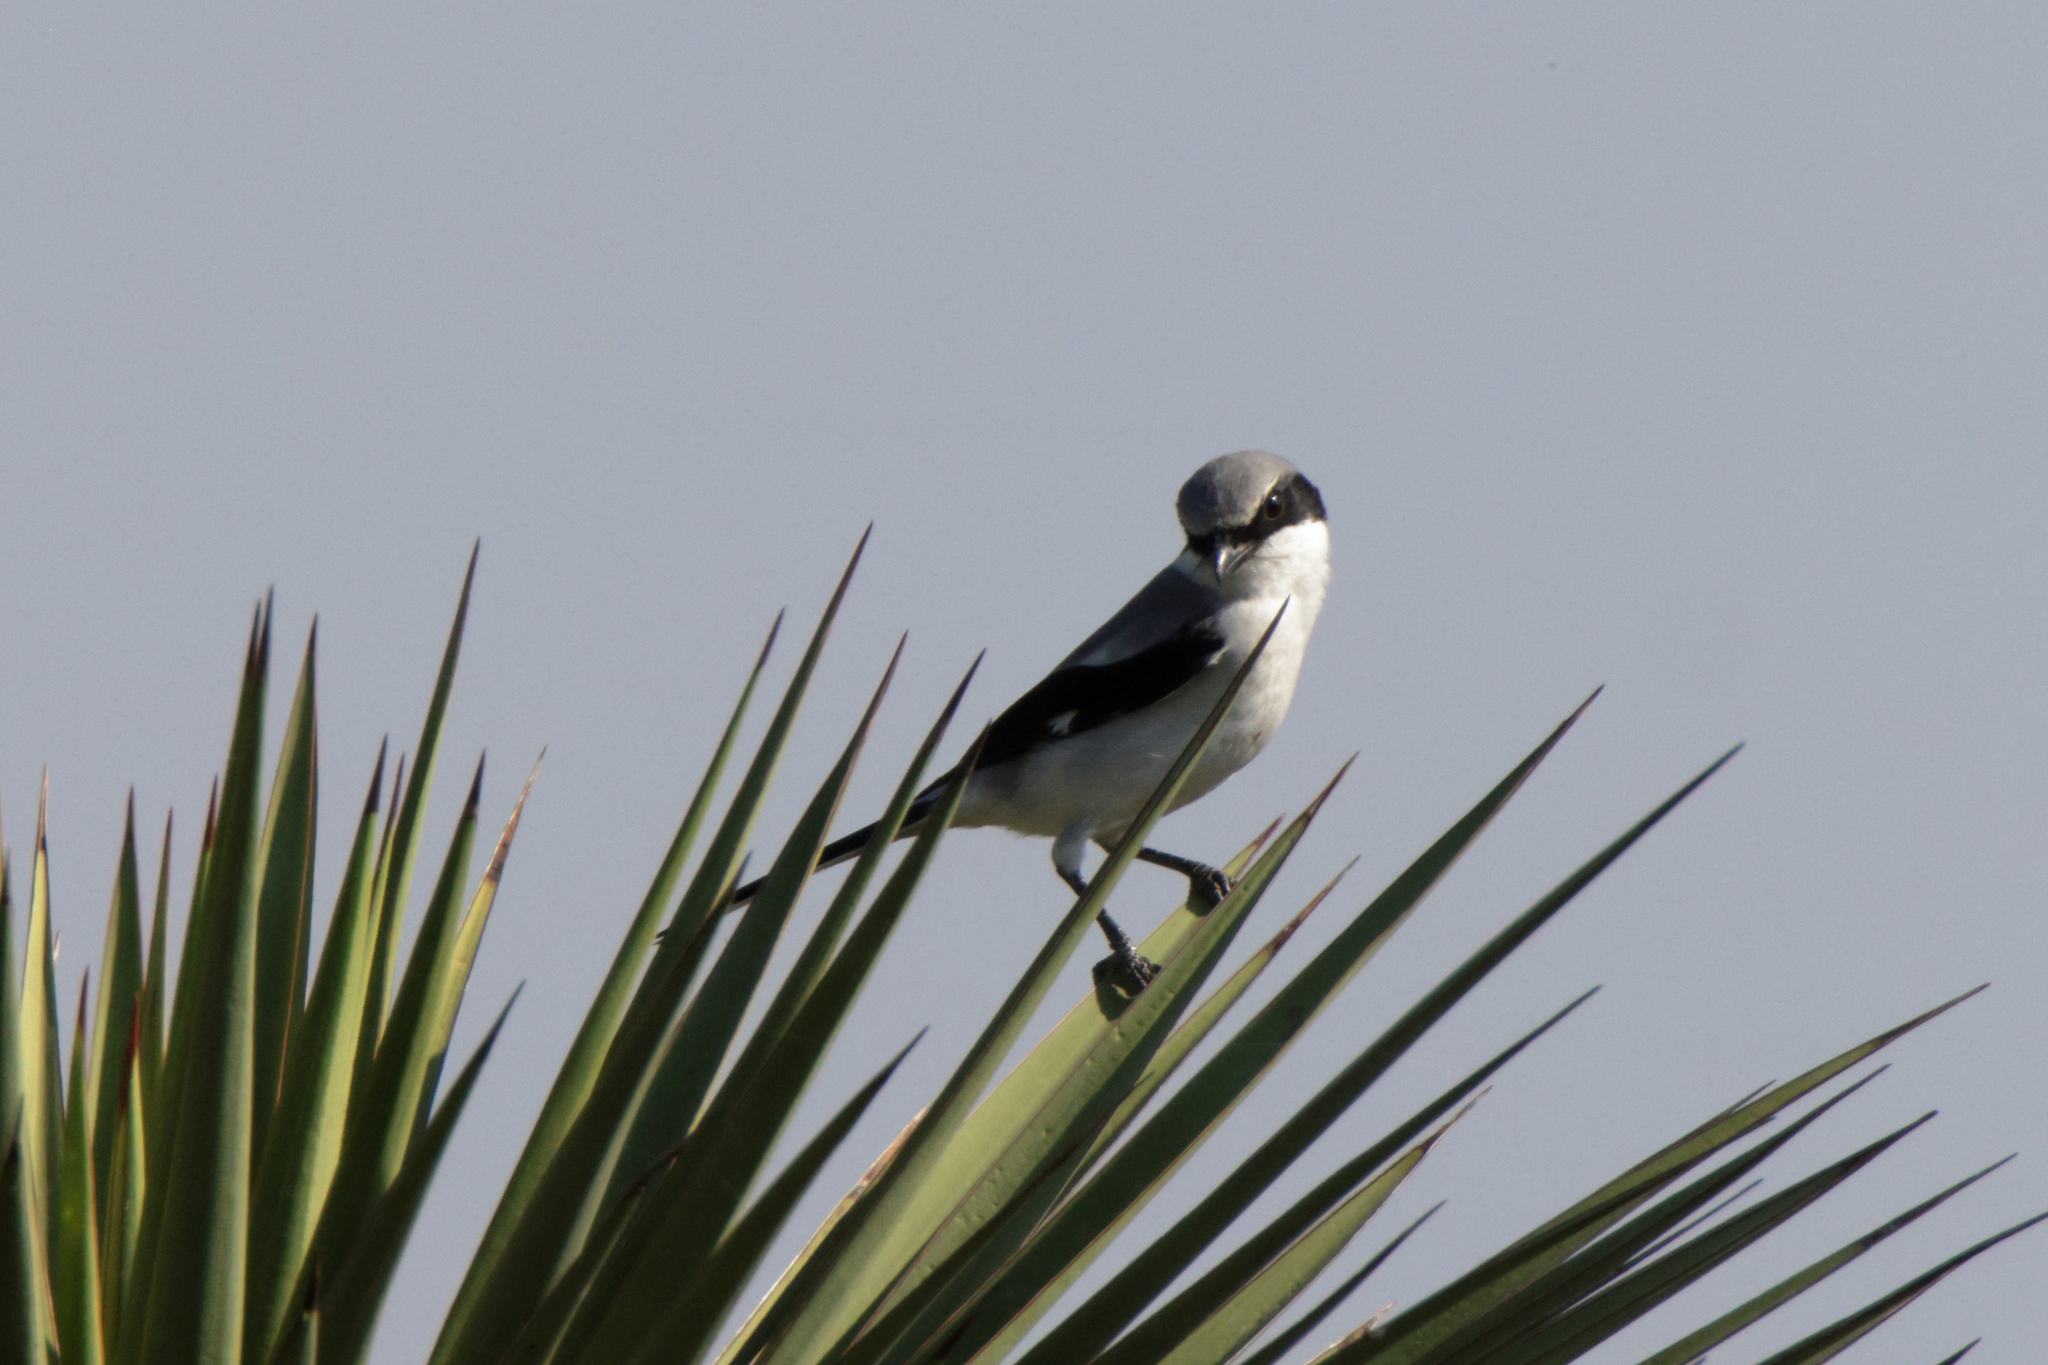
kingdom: Animalia
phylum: Chordata
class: Aves
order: Passeriformes
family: Laniidae
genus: Lanius
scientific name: Lanius ludovicianus
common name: Loggerhead shrike
